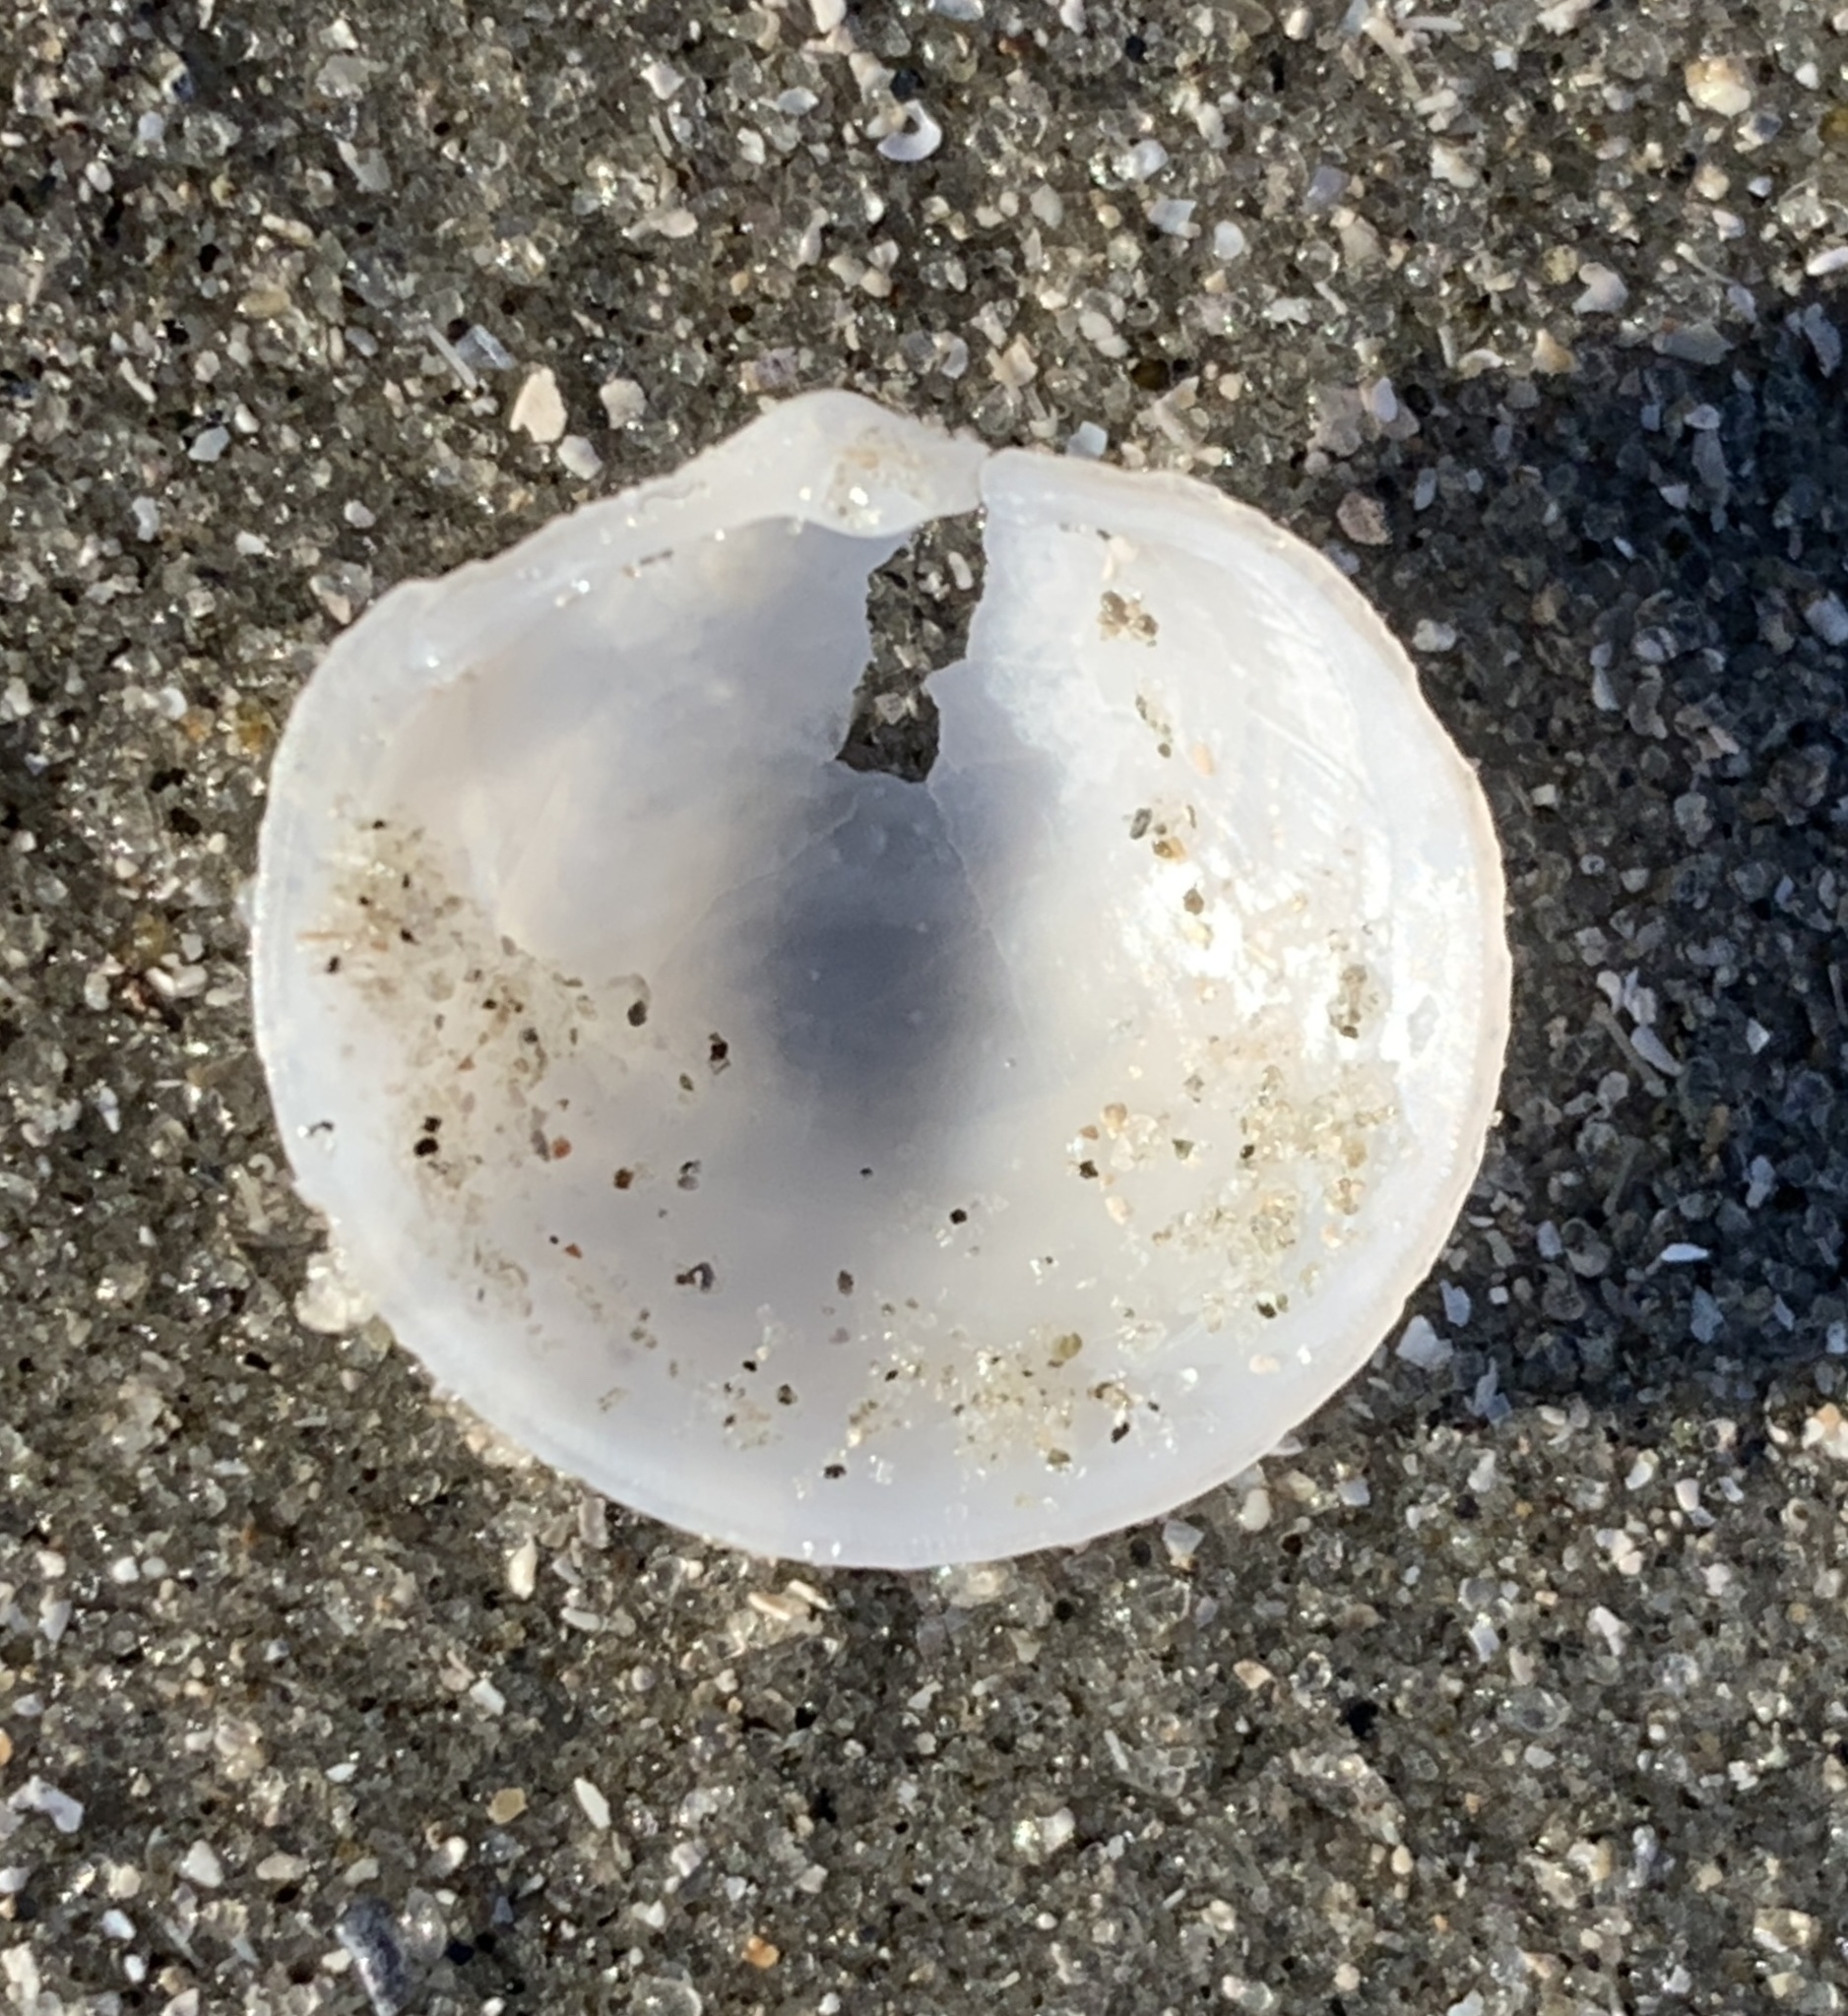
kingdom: Animalia
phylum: Mollusca
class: Bivalvia
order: Lucinida
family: Lucinidae
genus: Divalinga
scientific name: Divalinga quadrisulcata
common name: Cross-hatched lucine
